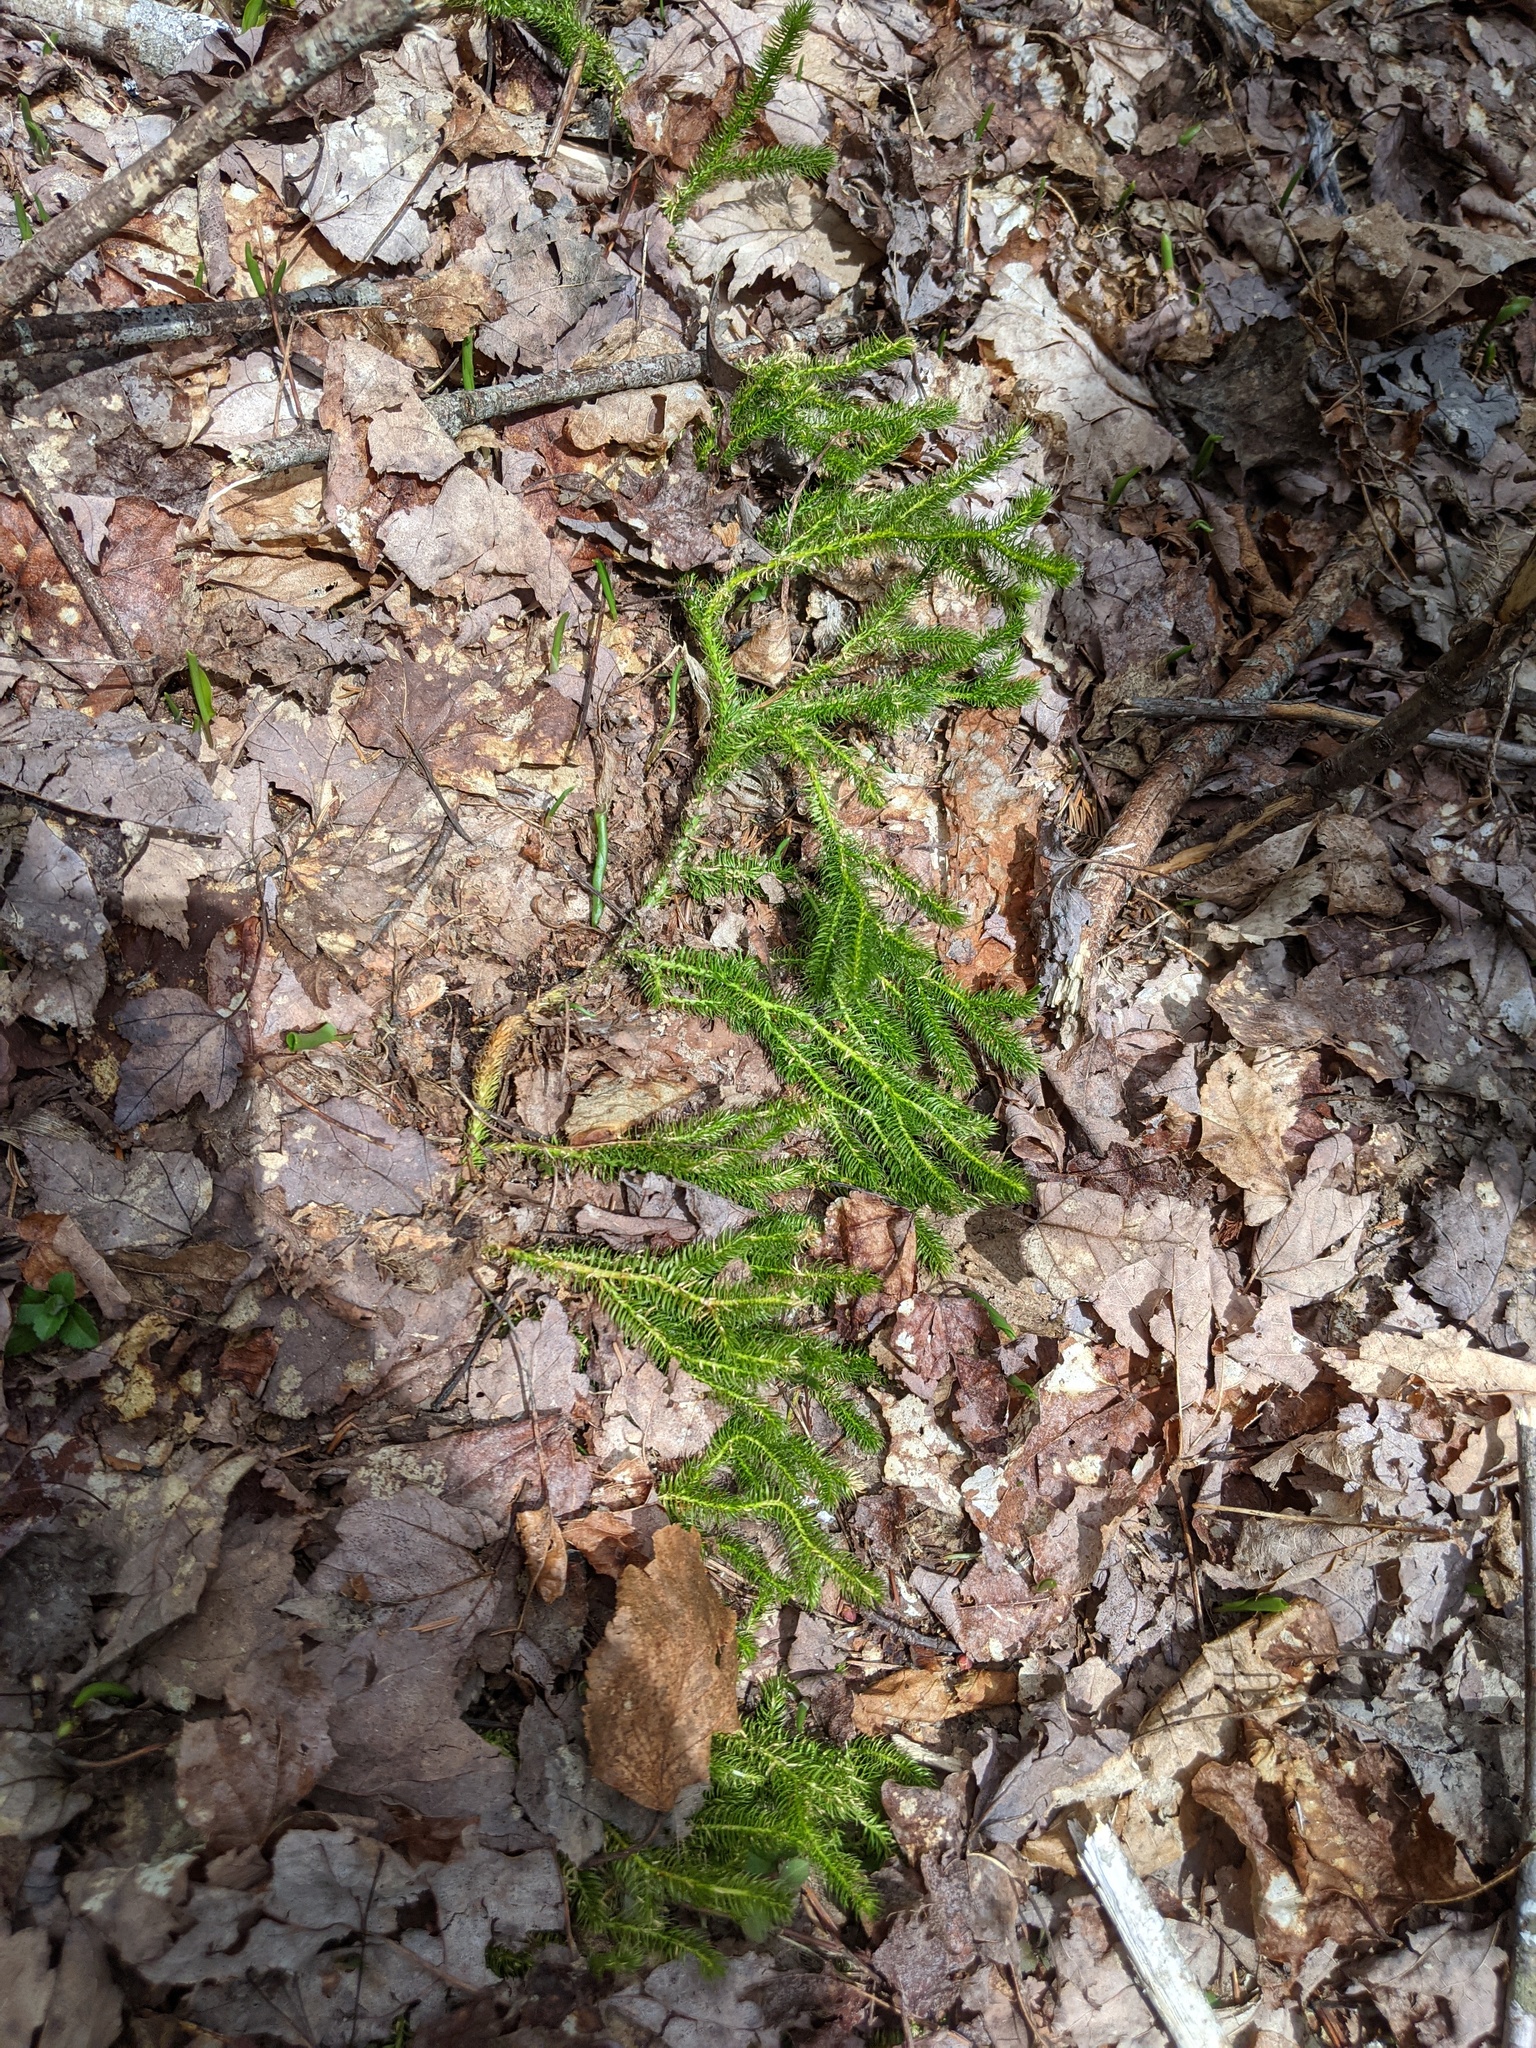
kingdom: Plantae
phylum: Tracheophyta
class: Lycopodiopsida
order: Lycopodiales
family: Lycopodiaceae
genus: Lycopodium
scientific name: Lycopodium clavatum
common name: Stag's-horn clubmoss
